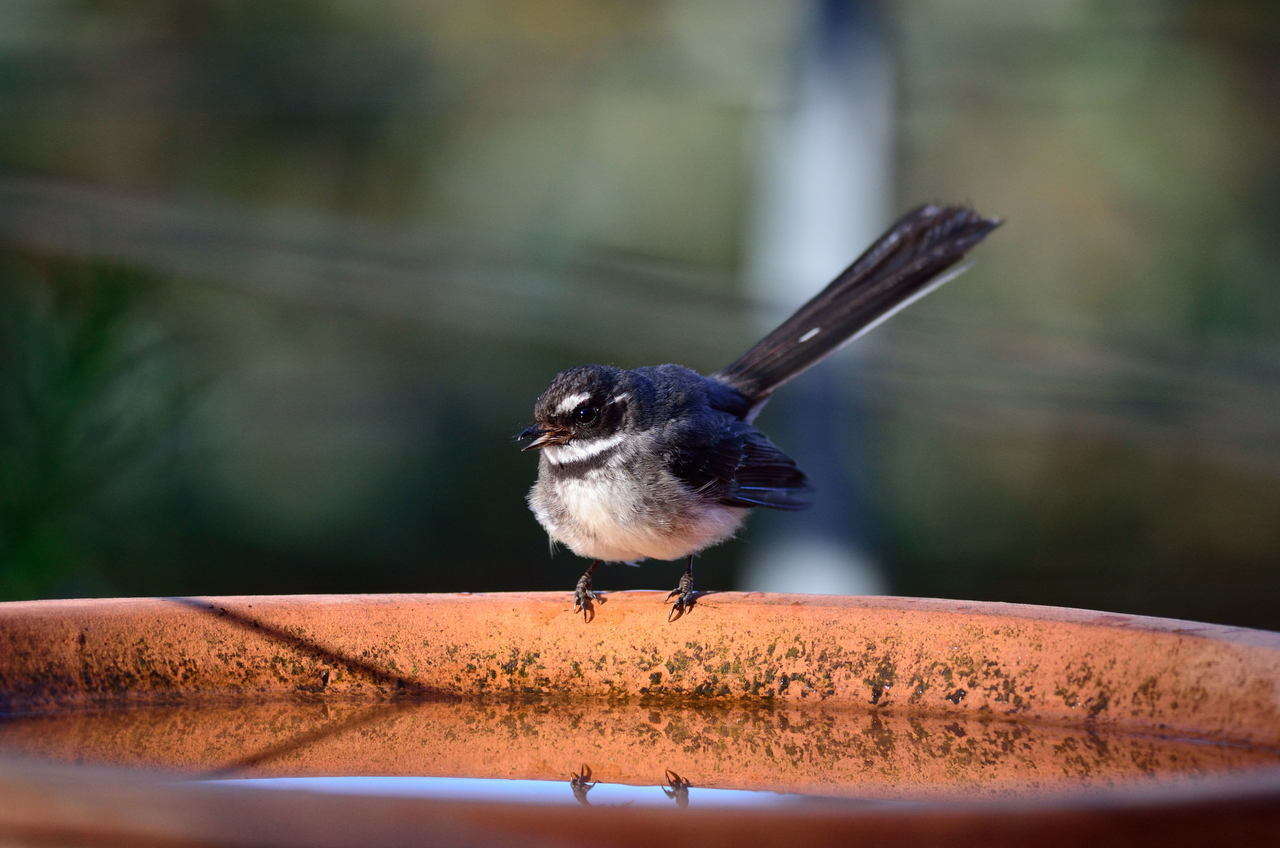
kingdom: Animalia
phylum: Chordata
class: Aves
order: Passeriformes
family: Rhipiduridae
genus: Rhipidura
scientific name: Rhipidura albiscapa
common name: Grey fantail
